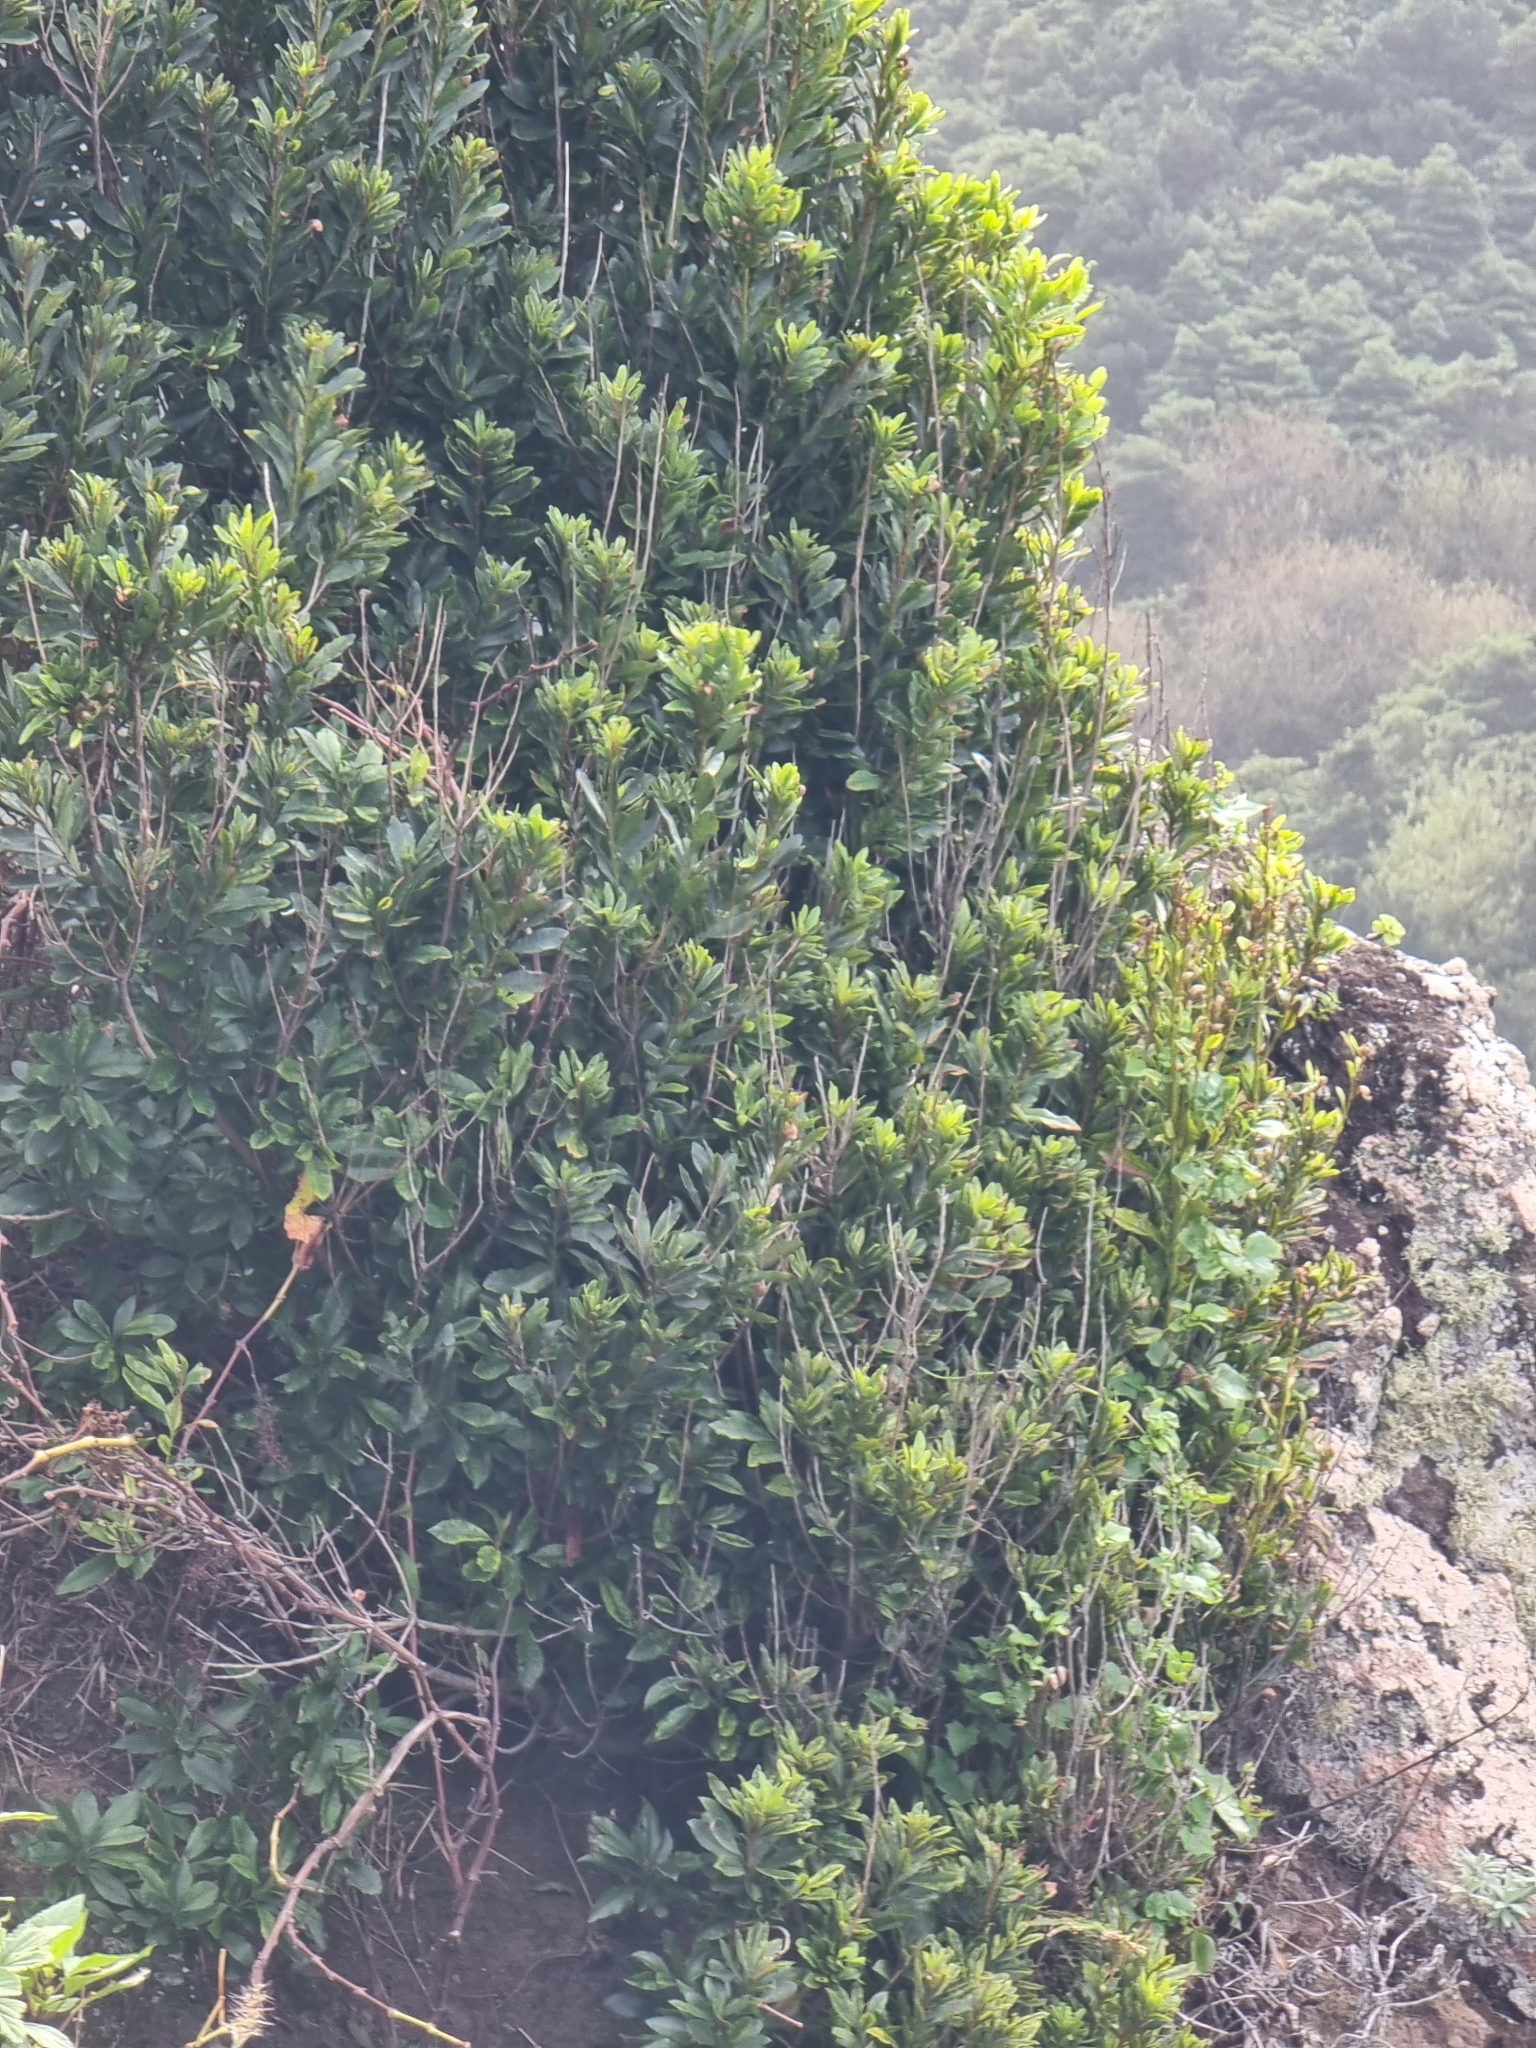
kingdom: Plantae
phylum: Tracheophyta
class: Magnoliopsida
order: Fagales
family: Myricaceae
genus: Morella
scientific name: Morella faya
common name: Firetree
